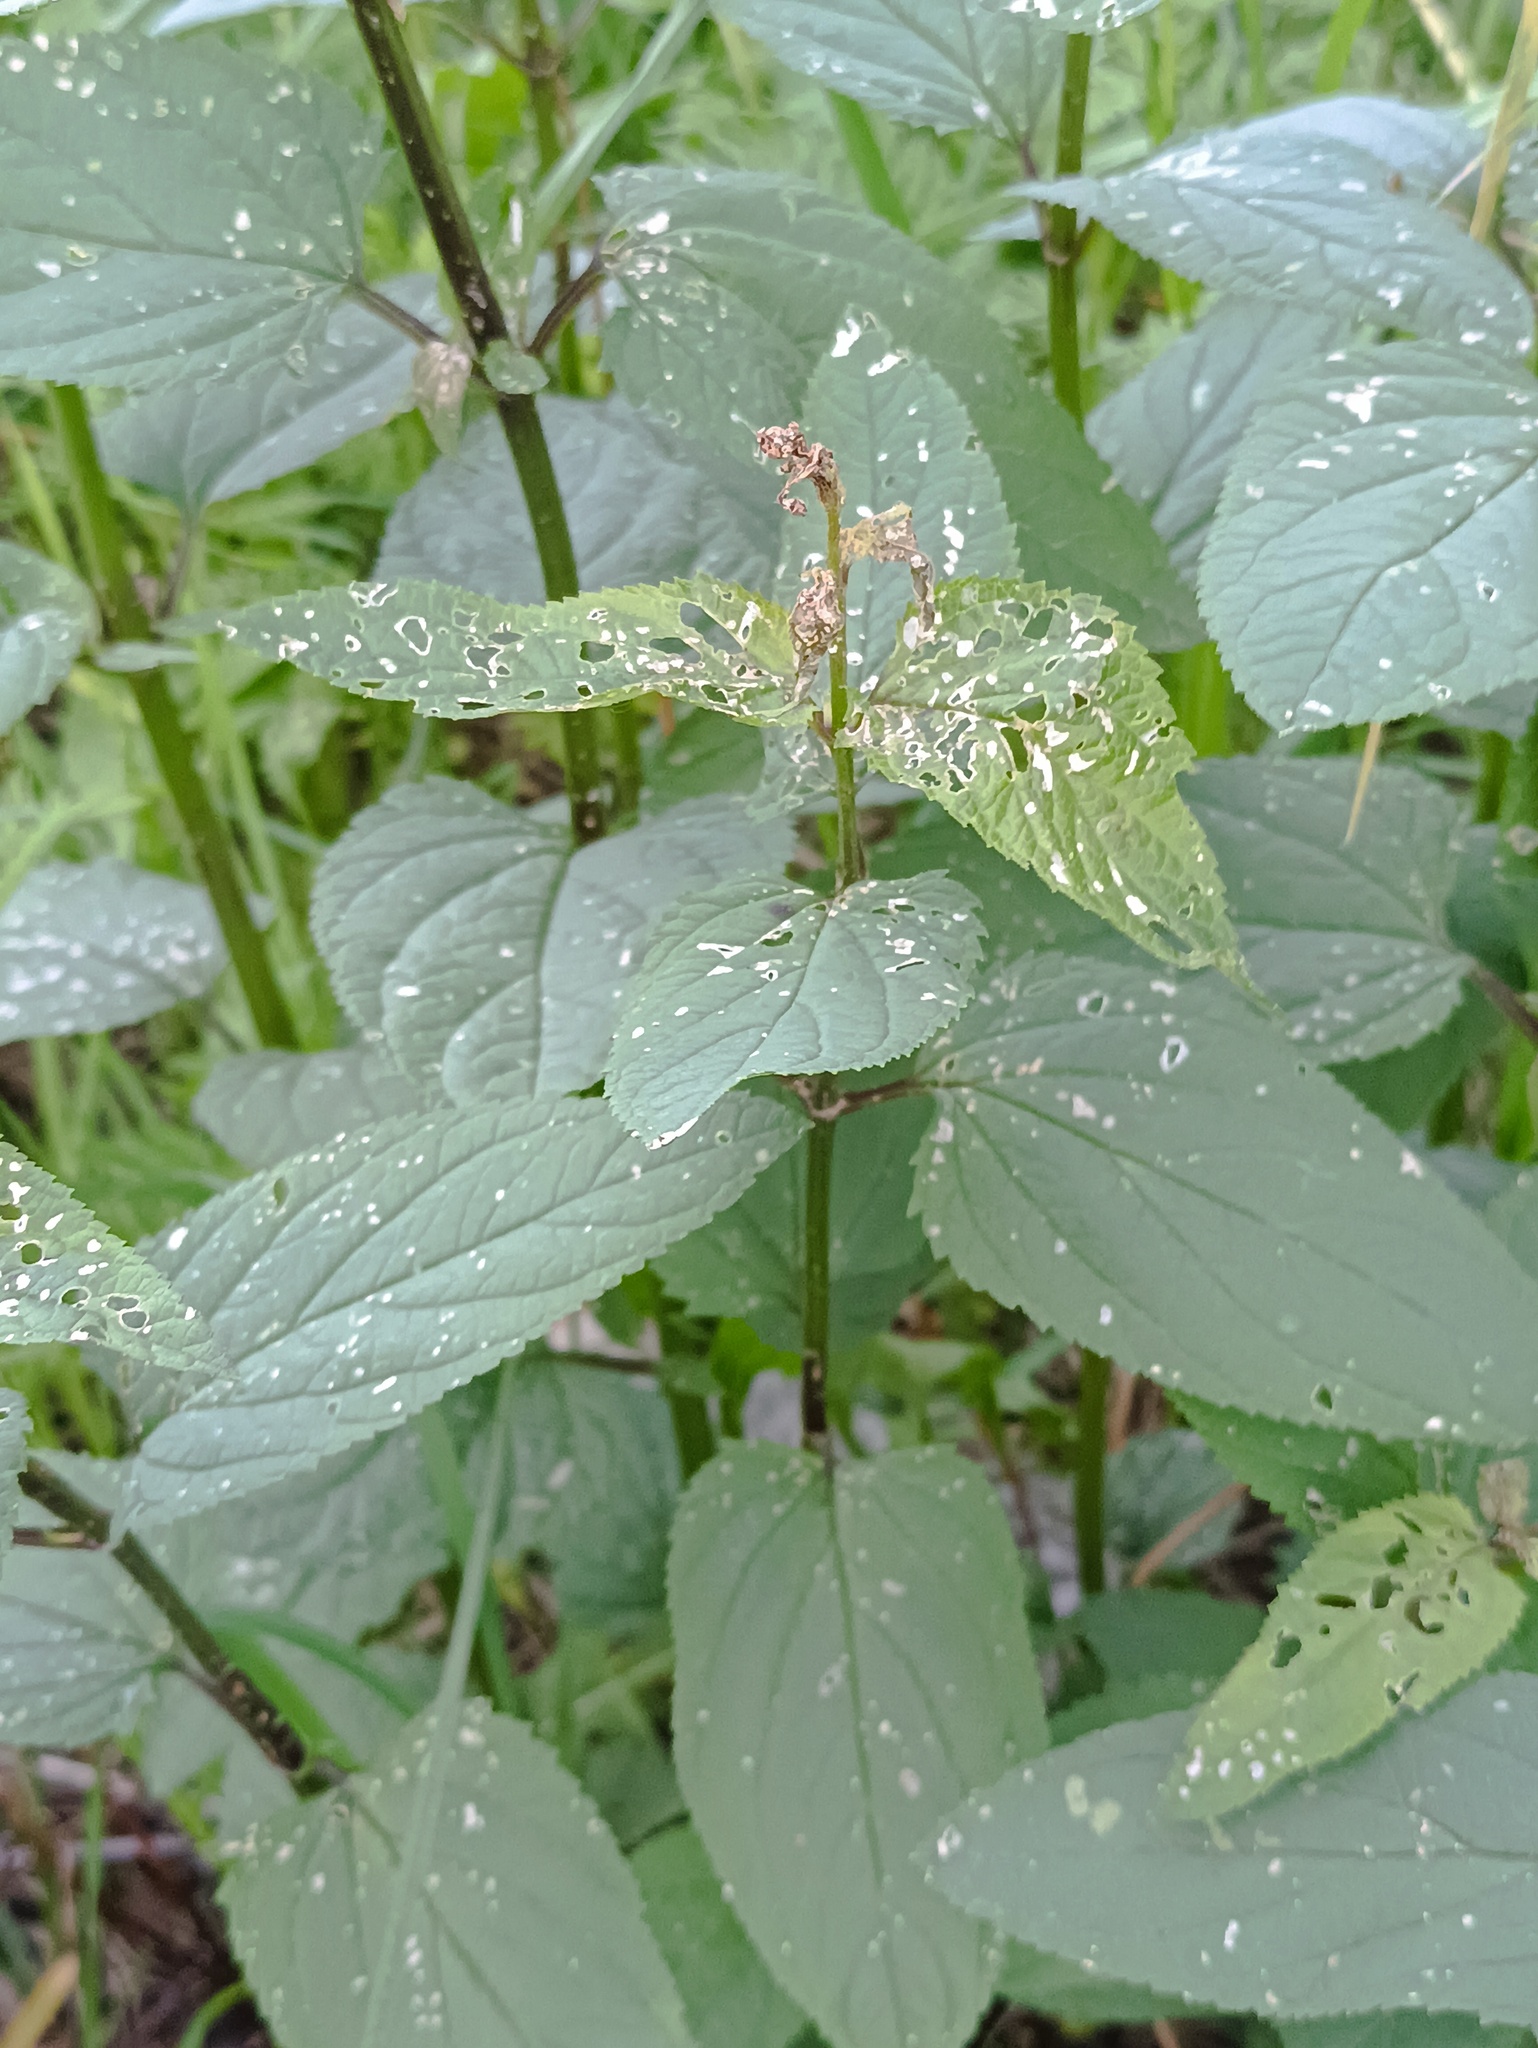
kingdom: Plantae
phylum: Tracheophyta
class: Magnoliopsida
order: Lamiales
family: Scrophulariaceae
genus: Scrophularia
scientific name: Scrophularia nodosa
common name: Common figwort
